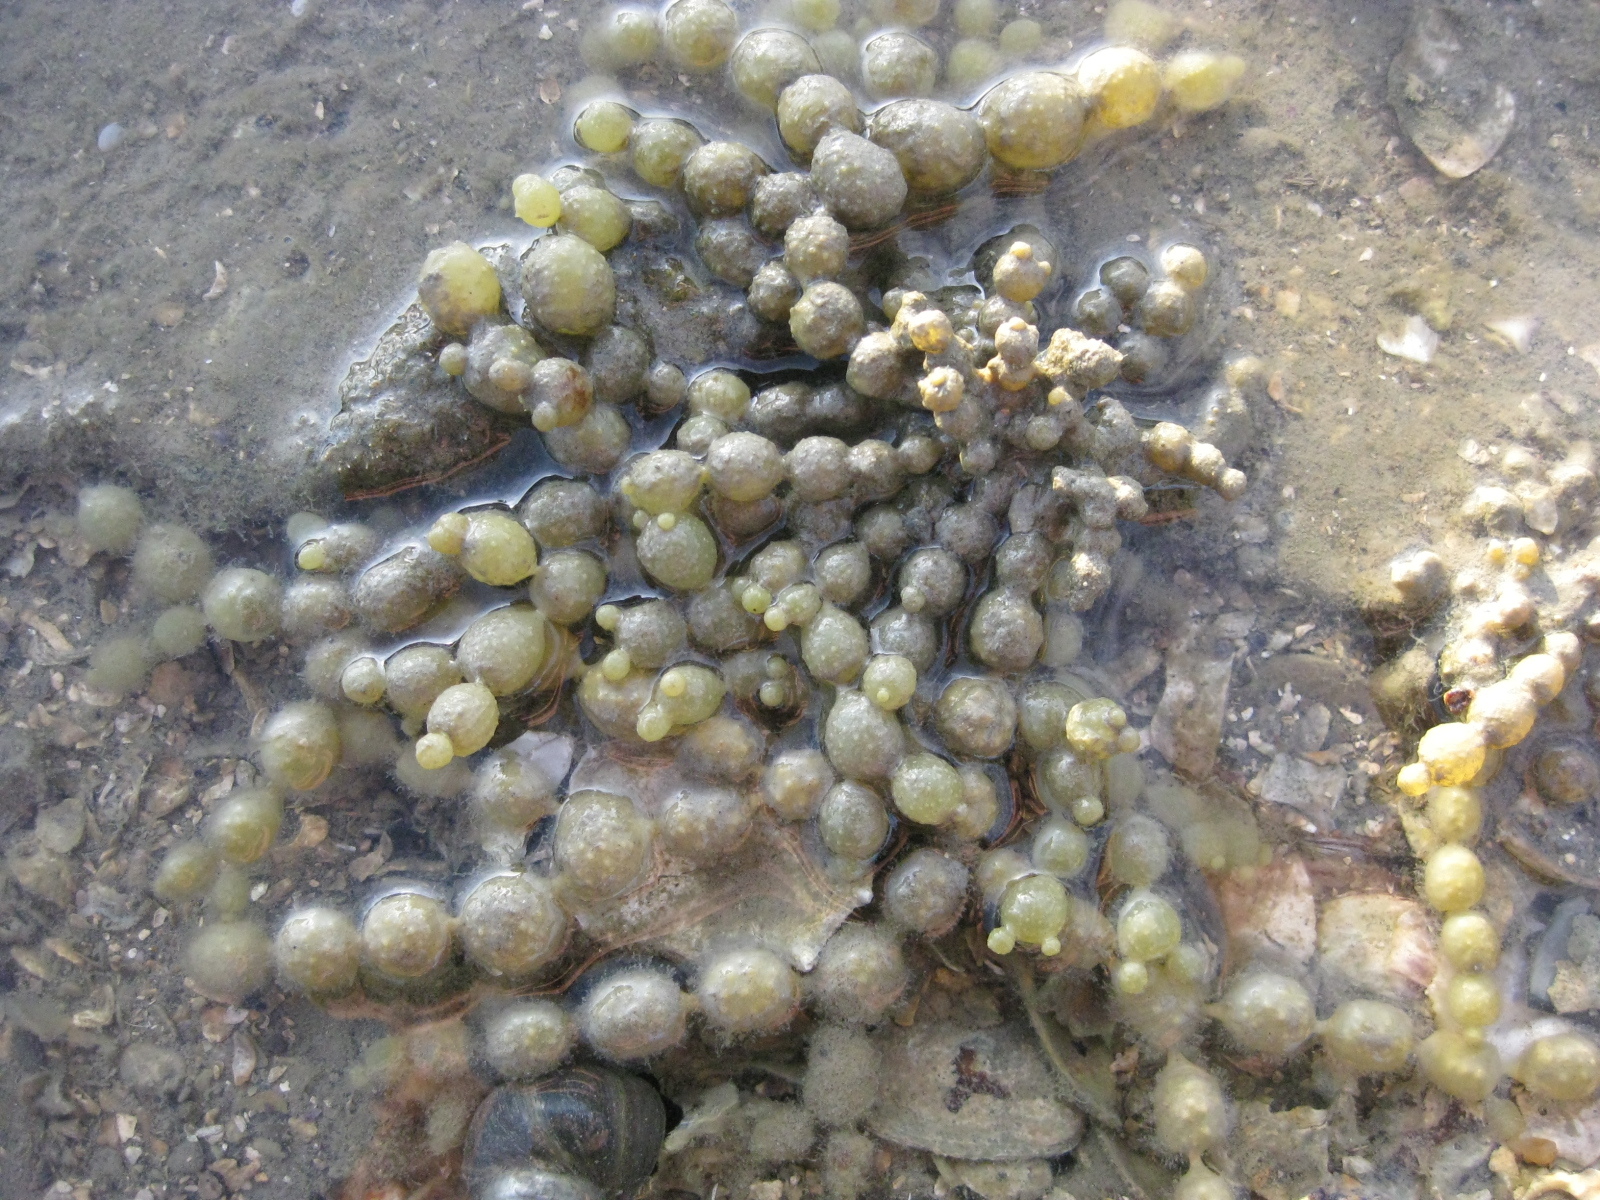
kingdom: Chromista
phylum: Ochrophyta
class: Phaeophyceae
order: Fucales
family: Hormosiraceae
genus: Hormosira
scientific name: Hormosira banksii
